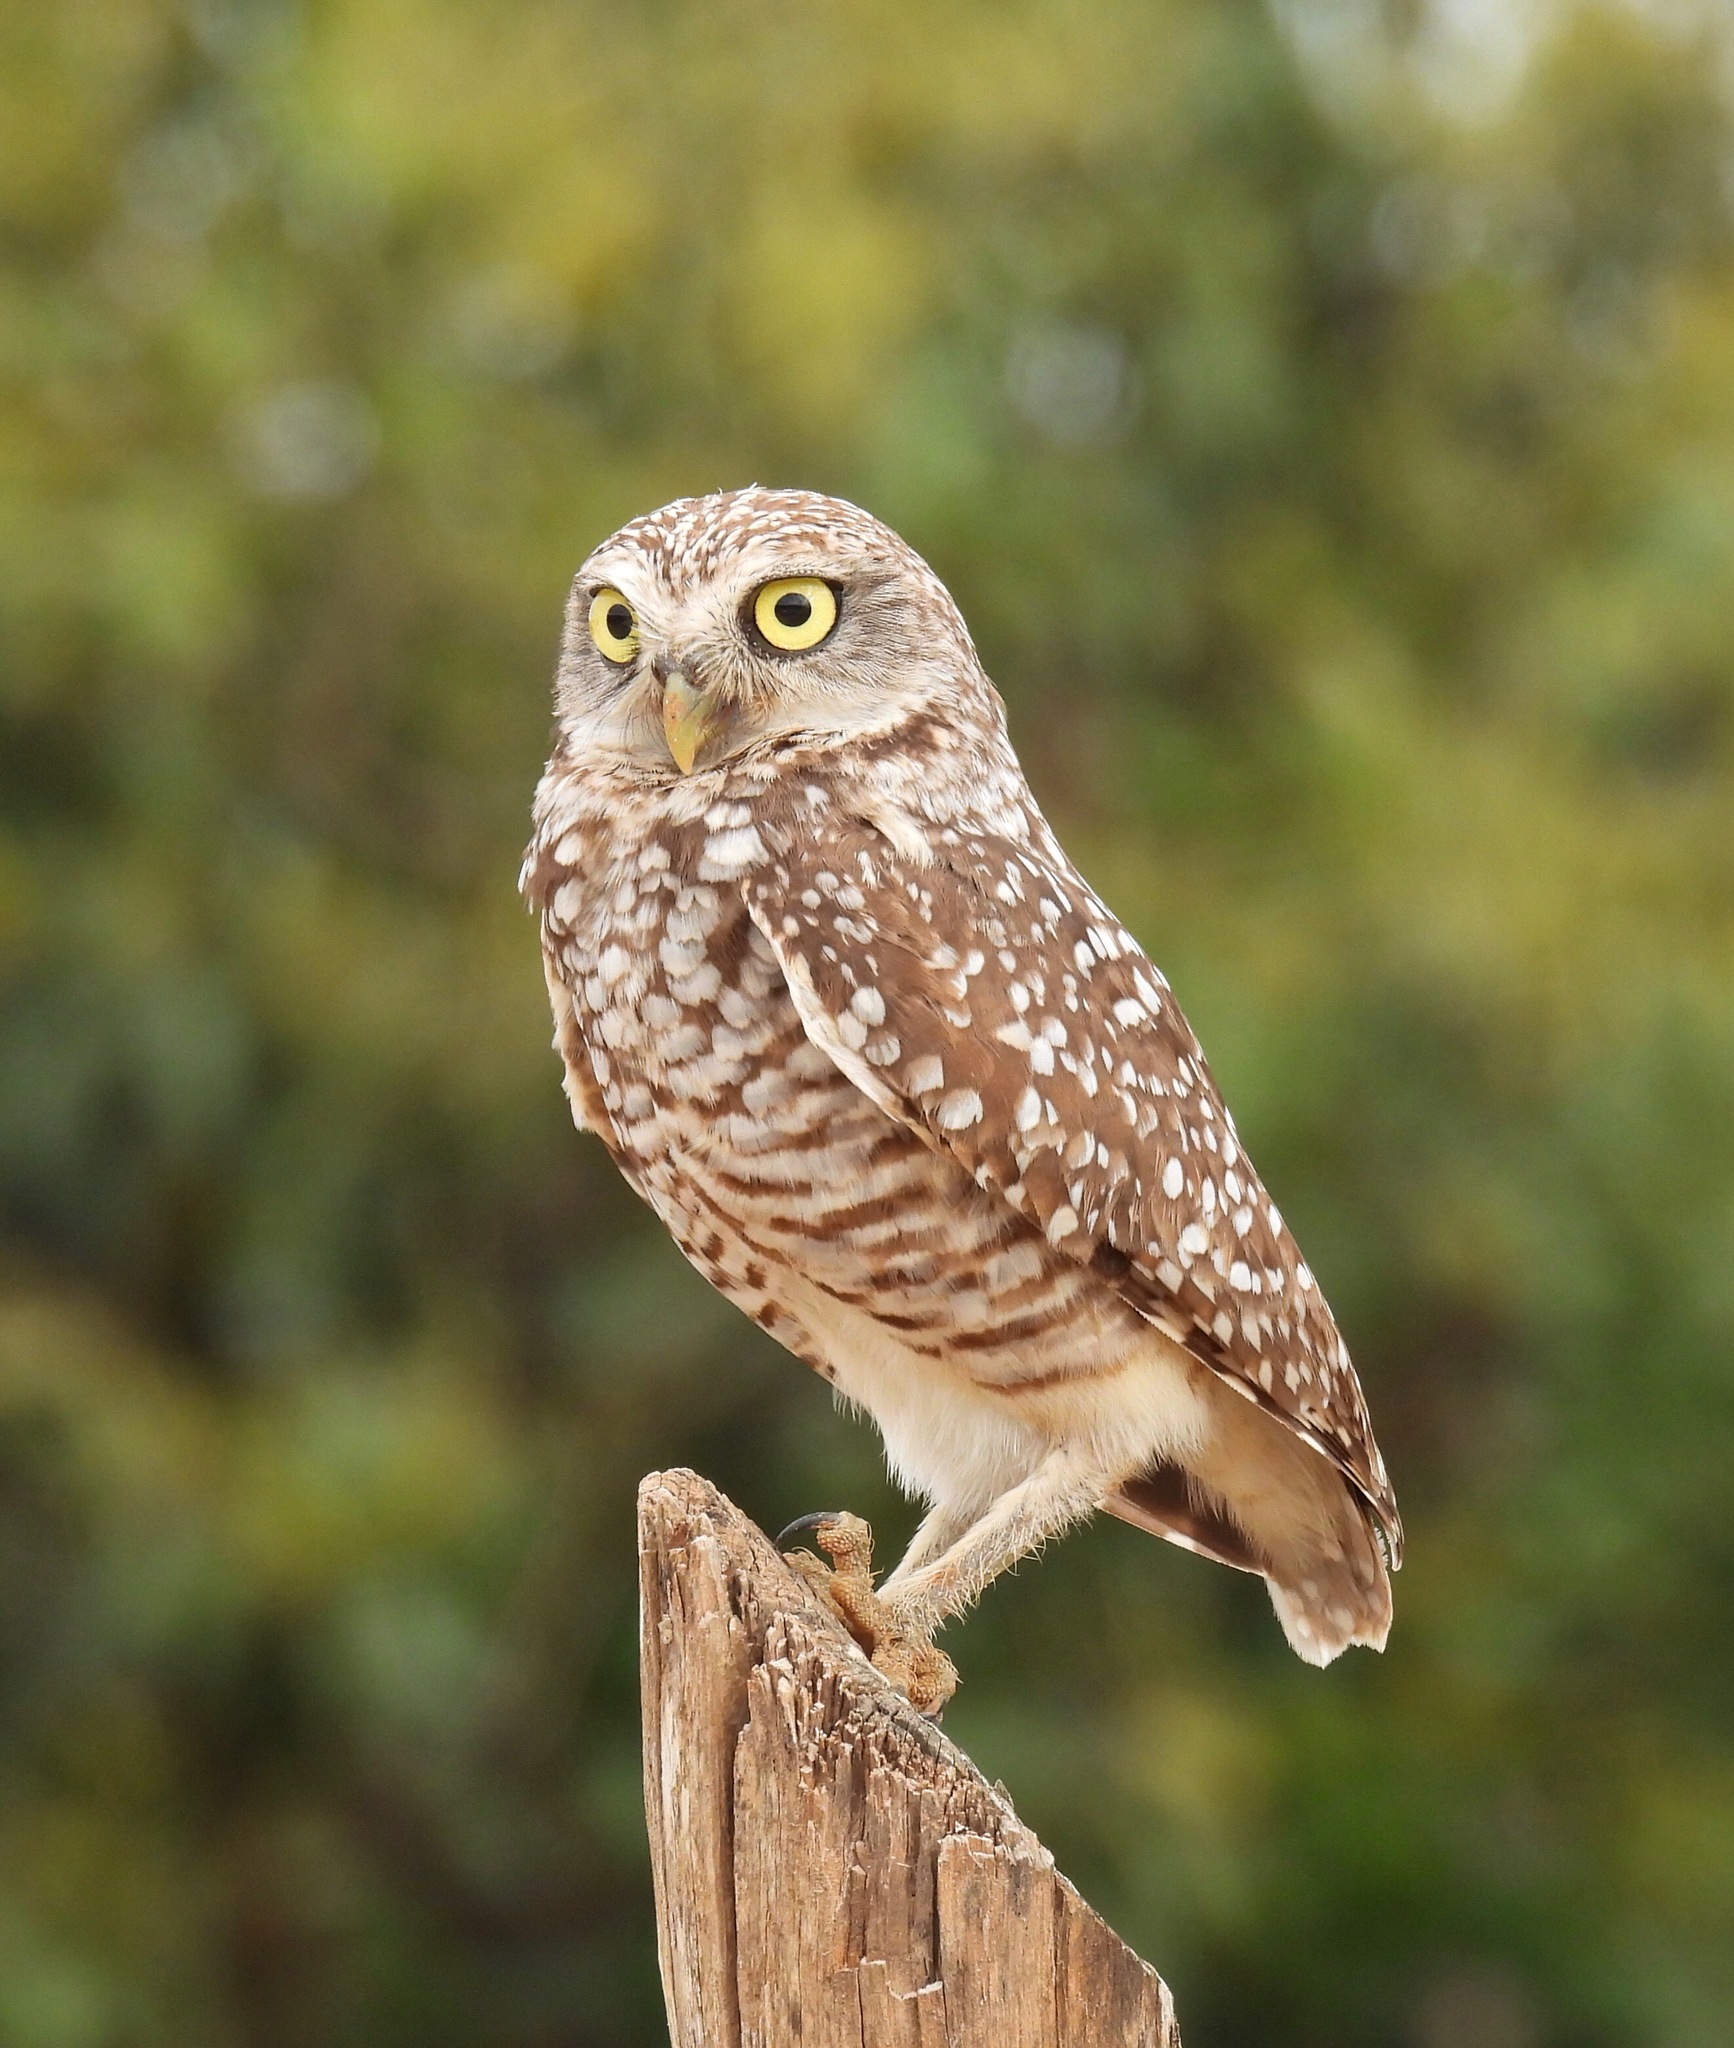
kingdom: Animalia
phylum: Chordata
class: Aves
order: Strigiformes
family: Strigidae
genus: Athene
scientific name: Athene cunicularia
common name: Burrowing owl
